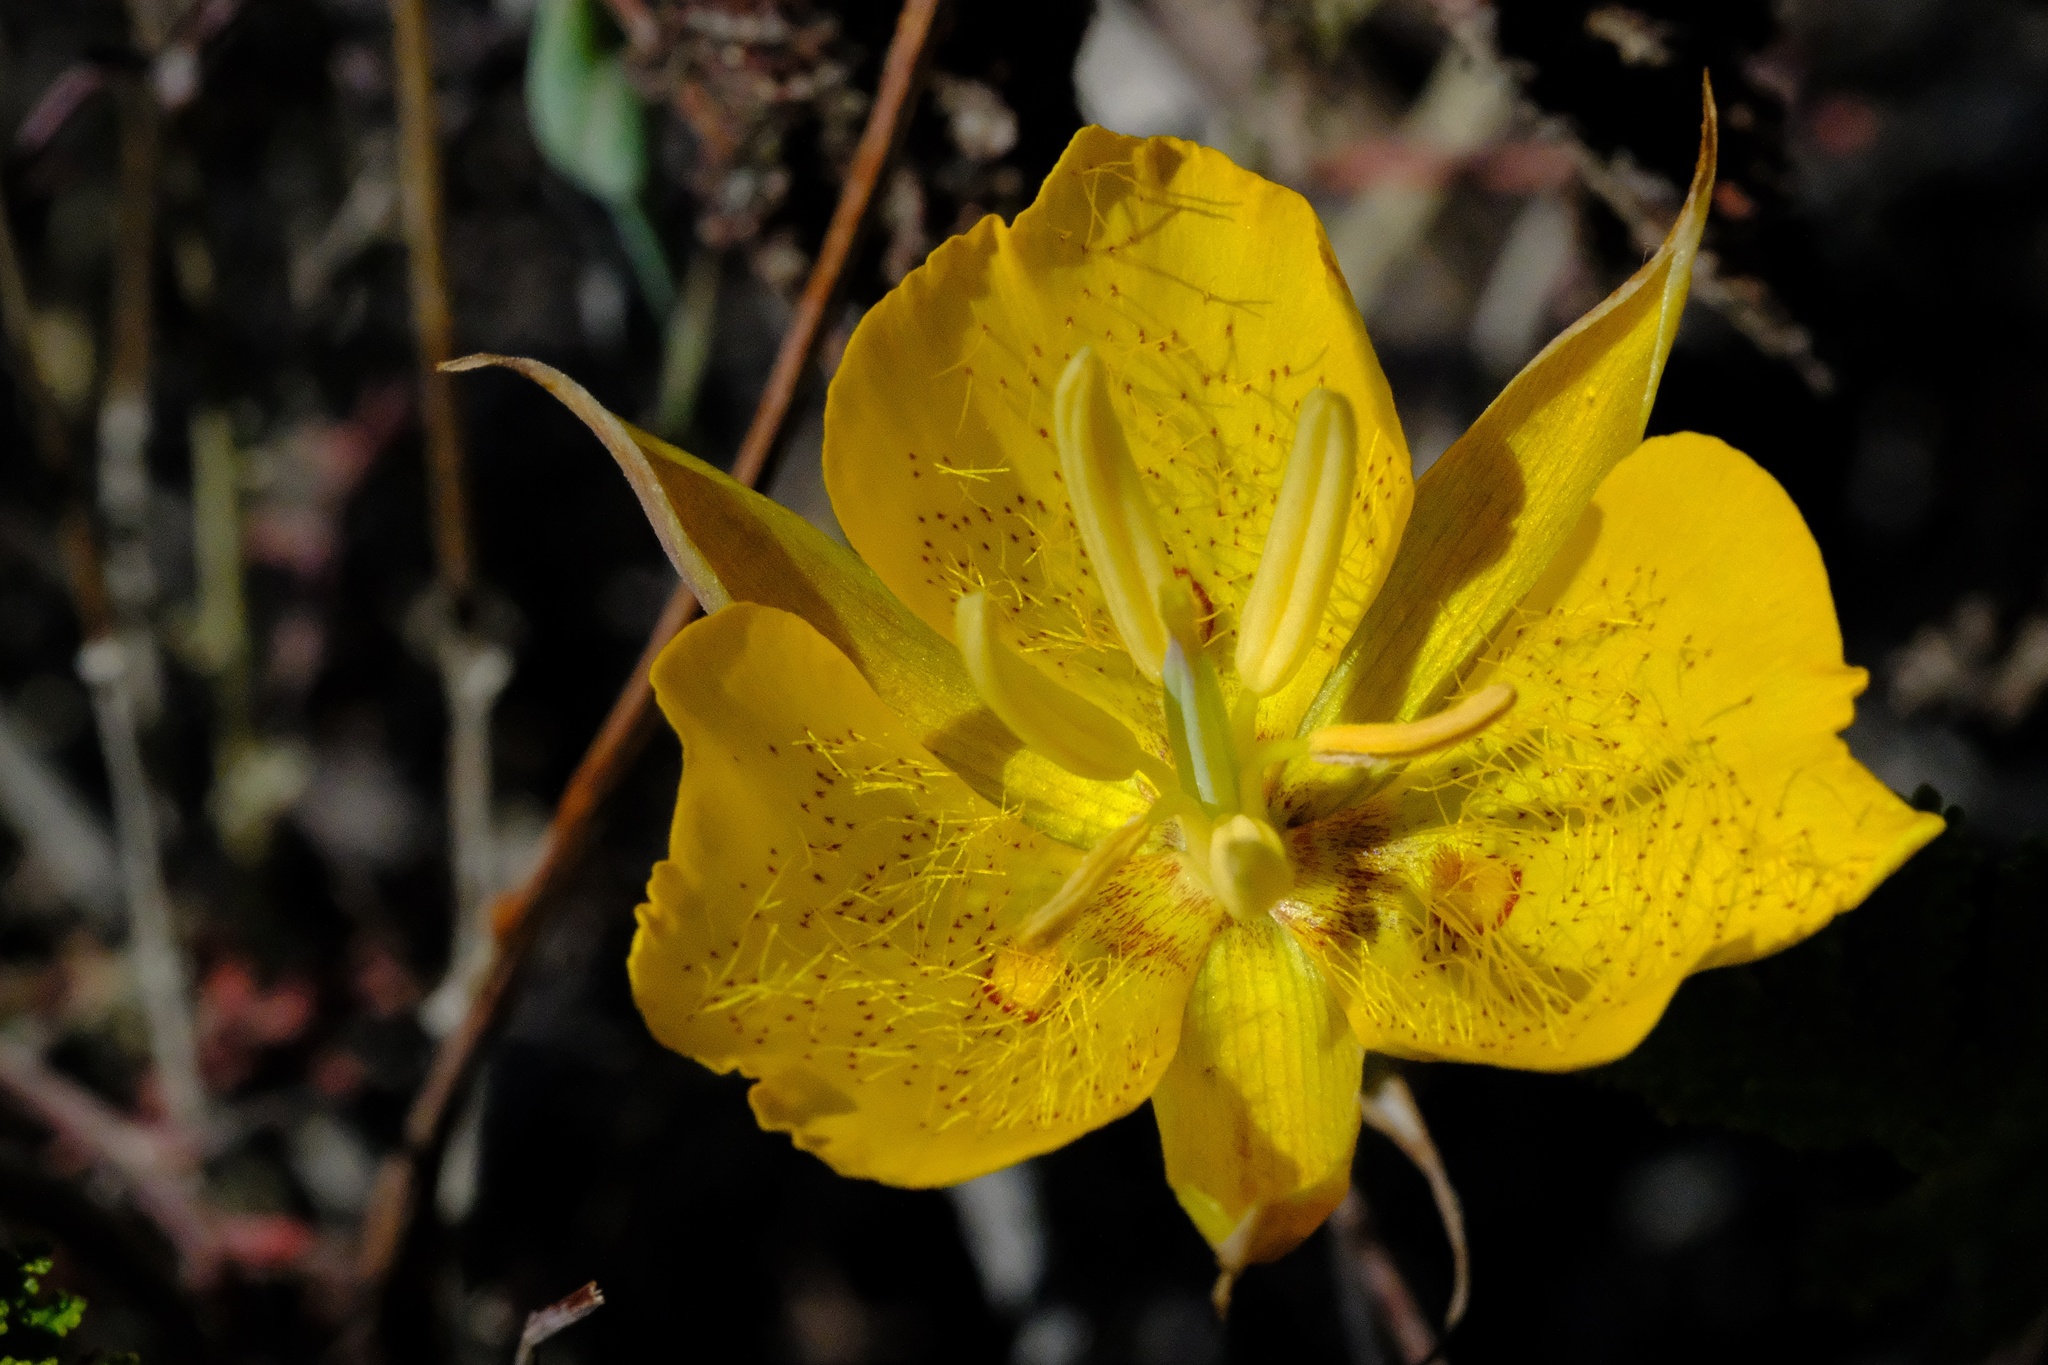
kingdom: Plantae
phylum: Tracheophyta
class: Liliopsida
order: Liliales
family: Liliaceae
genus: Calochortus
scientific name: Calochortus weedii
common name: Weed's mariposa-lily
